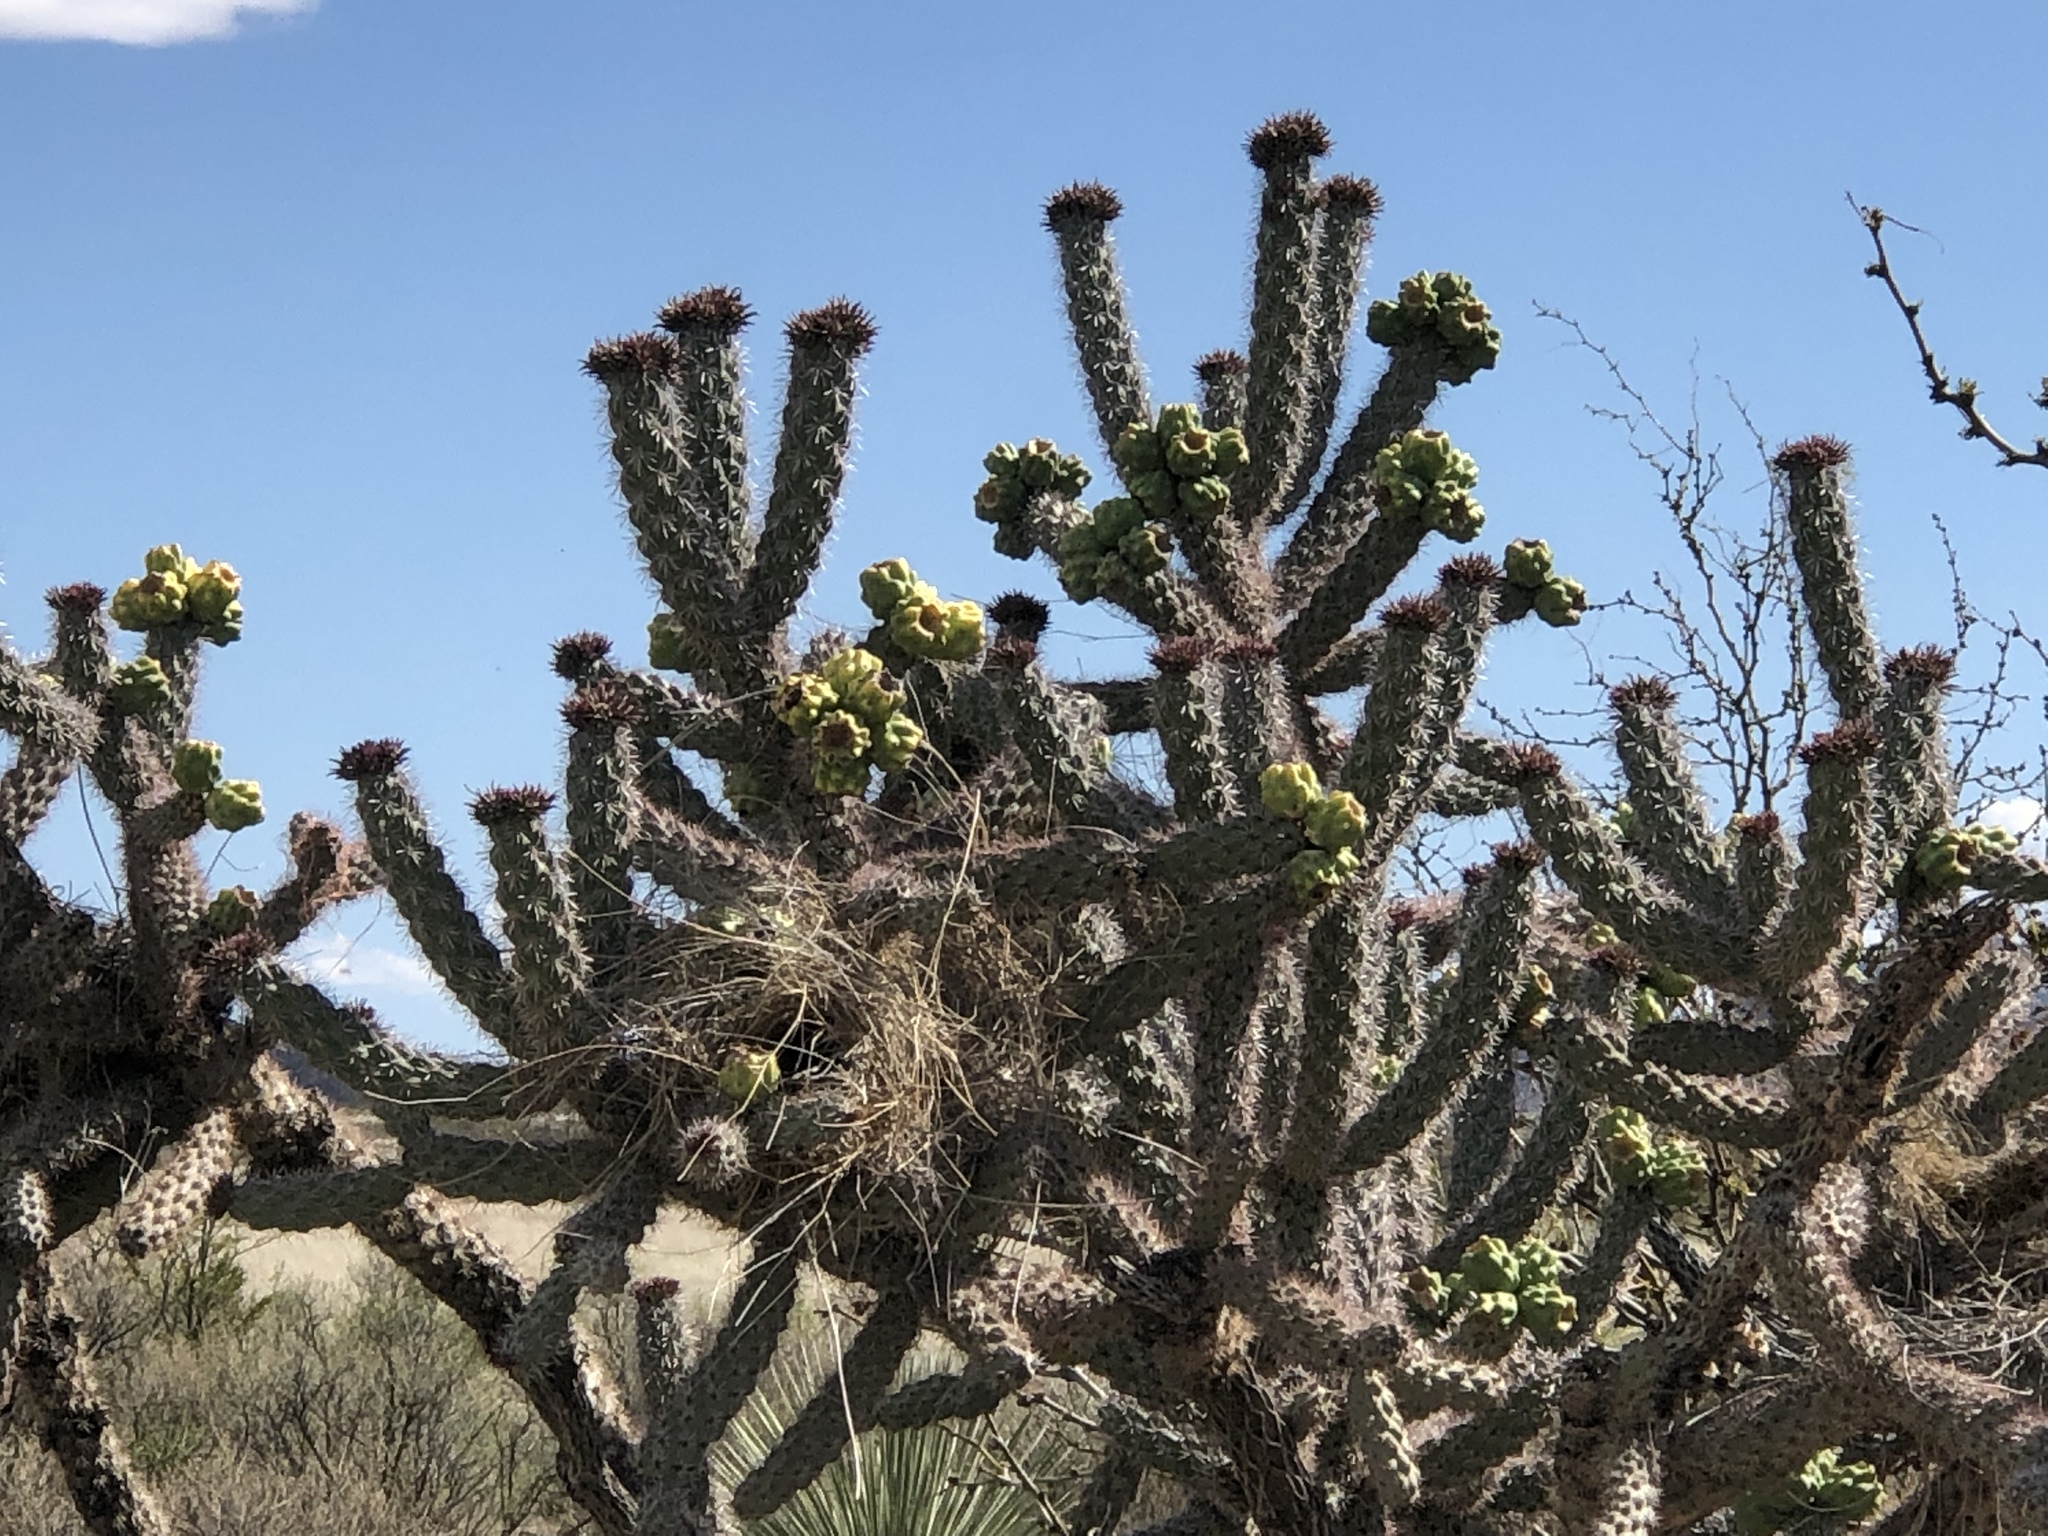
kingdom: Plantae
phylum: Tracheophyta
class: Magnoliopsida
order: Caryophyllales
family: Cactaceae
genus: Cylindropuntia
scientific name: Cylindropuntia imbricata
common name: Candelabrum cactus
